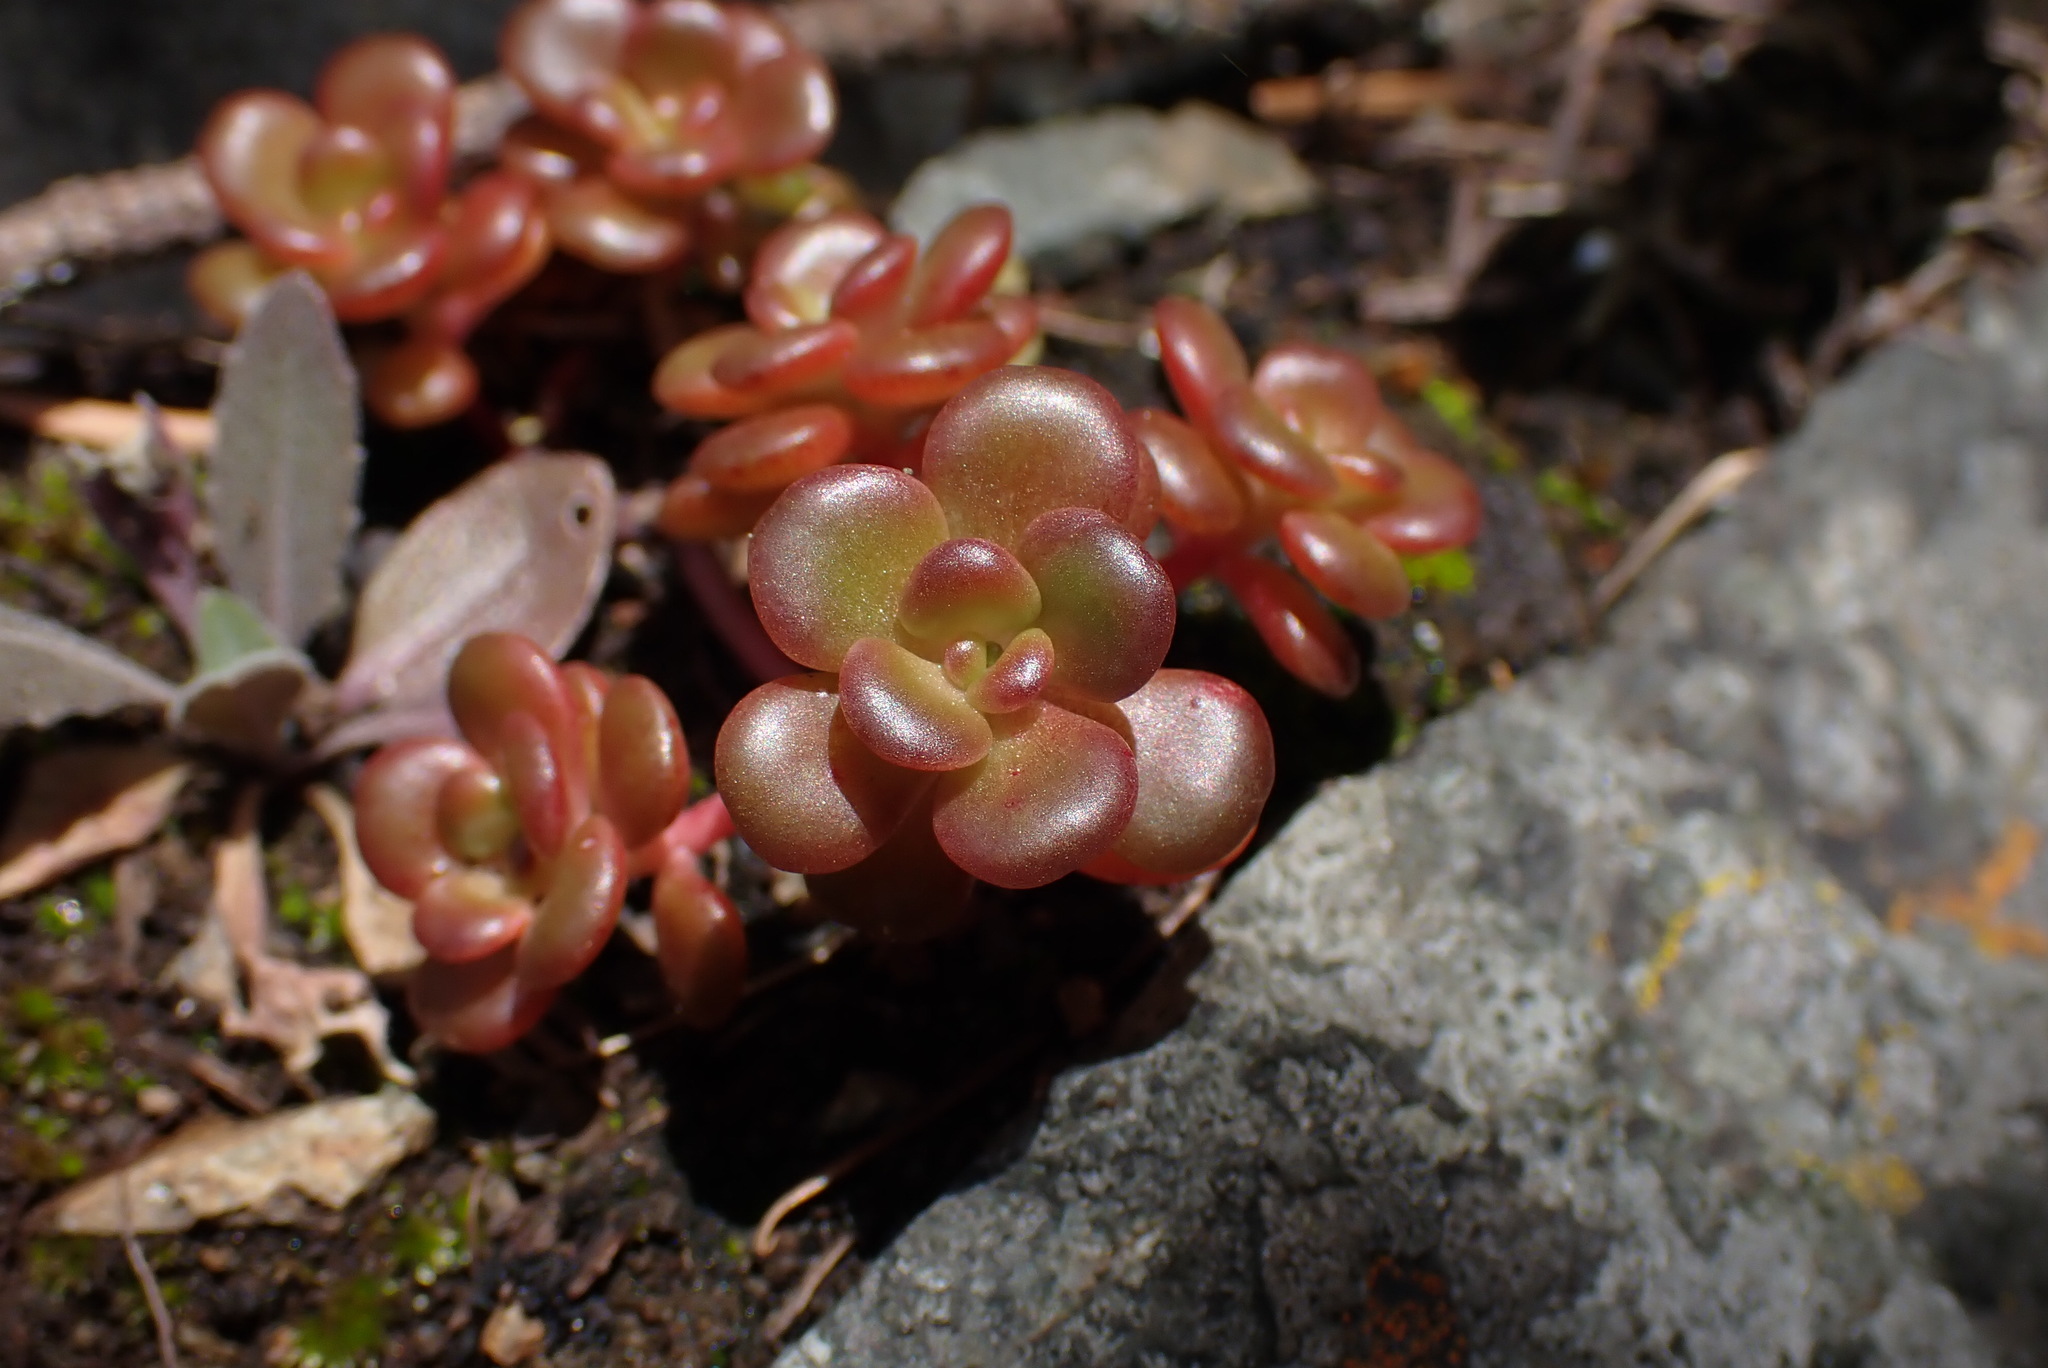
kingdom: Plantae
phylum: Tracheophyta
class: Magnoliopsida
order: Saxifragales
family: Crassulaceae
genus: Sedum
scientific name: Sedum oreganum
